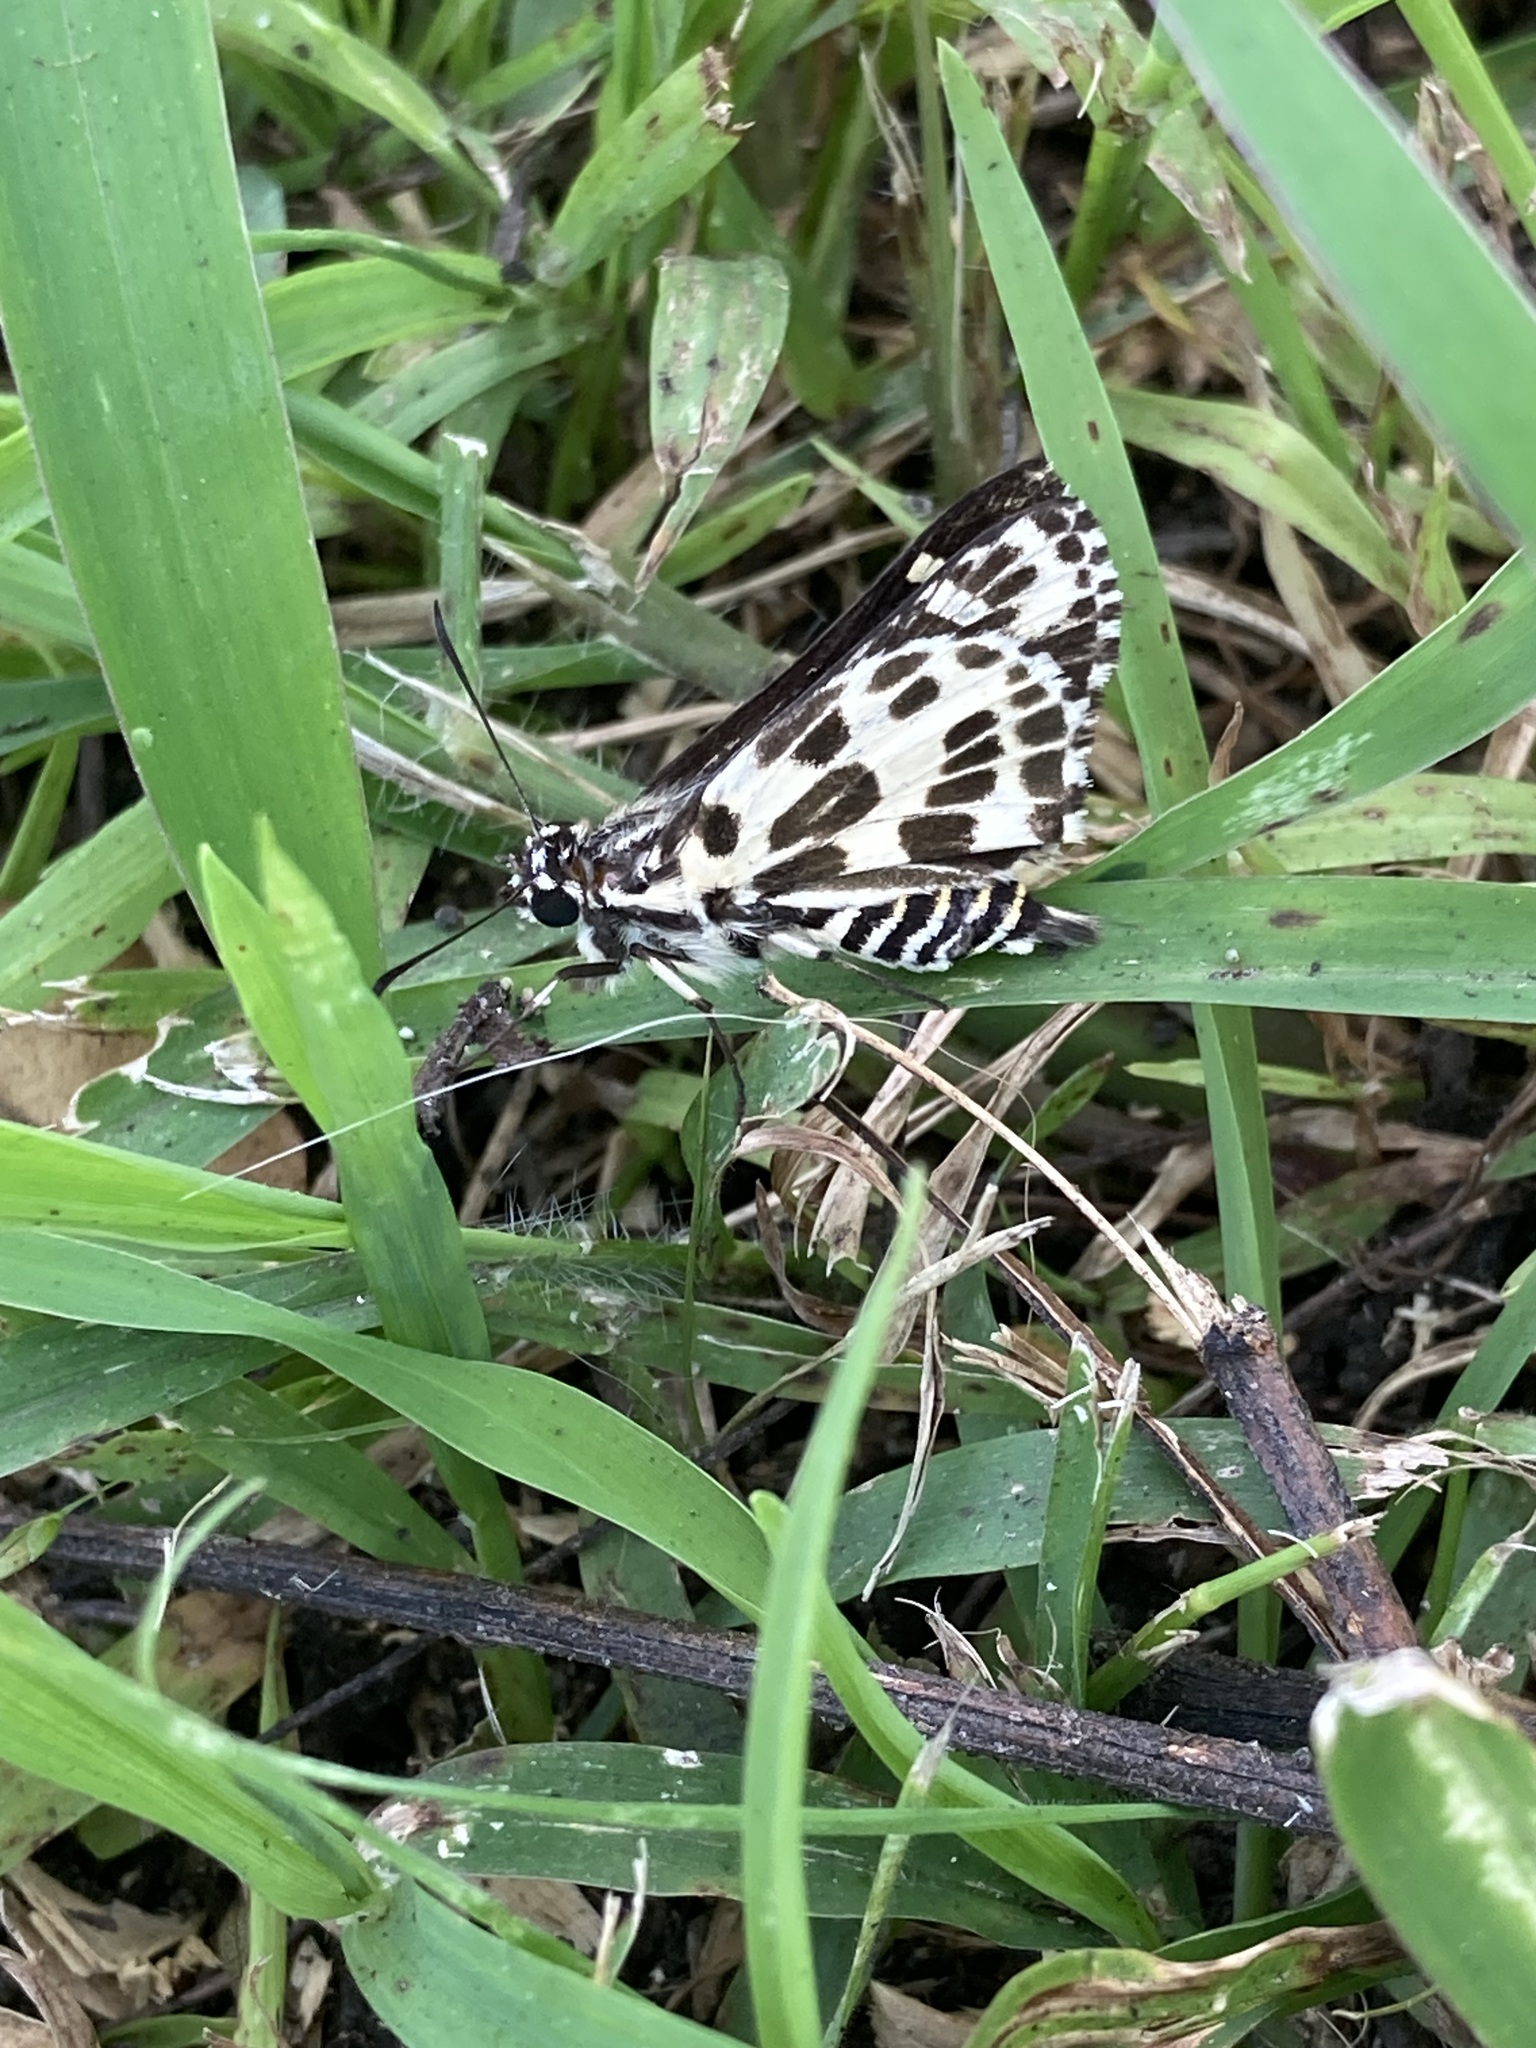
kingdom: Animalia
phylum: Arthropoda
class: Insecta
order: Lepidoptera
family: Hesperiidae
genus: Hesperilla
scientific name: Hesperilla ornata
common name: Spotted sedge-skipper
